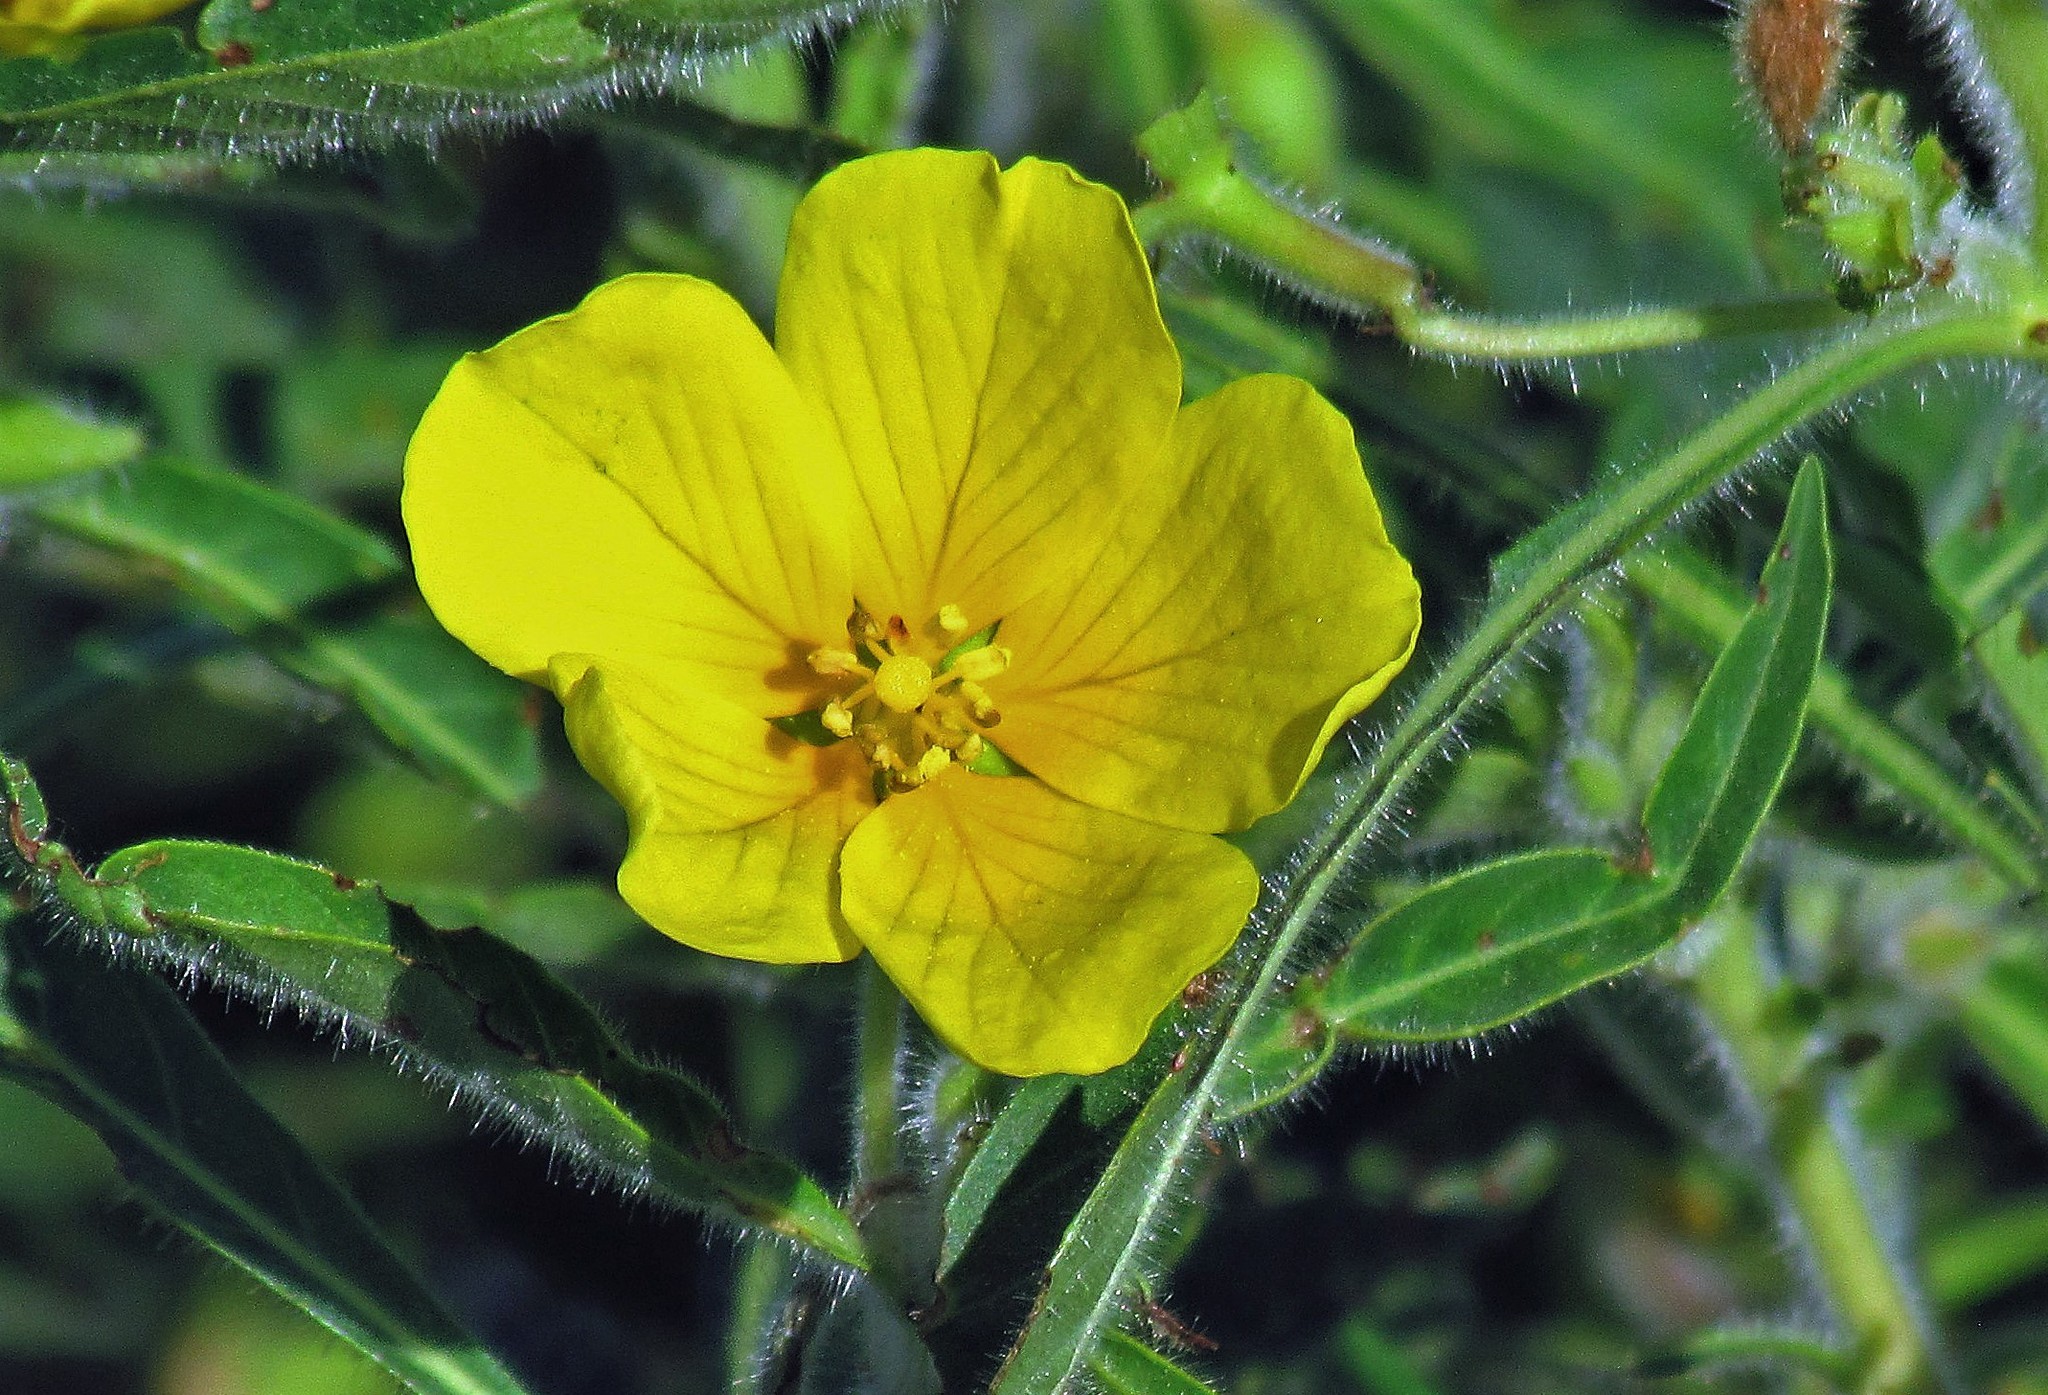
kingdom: Plantae
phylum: Tracheophyta
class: Magnoliopsida
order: Myrtales
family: Onagraceae
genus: Ludwigia
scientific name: Ludwigia peploides
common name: Floating primrose-willow
